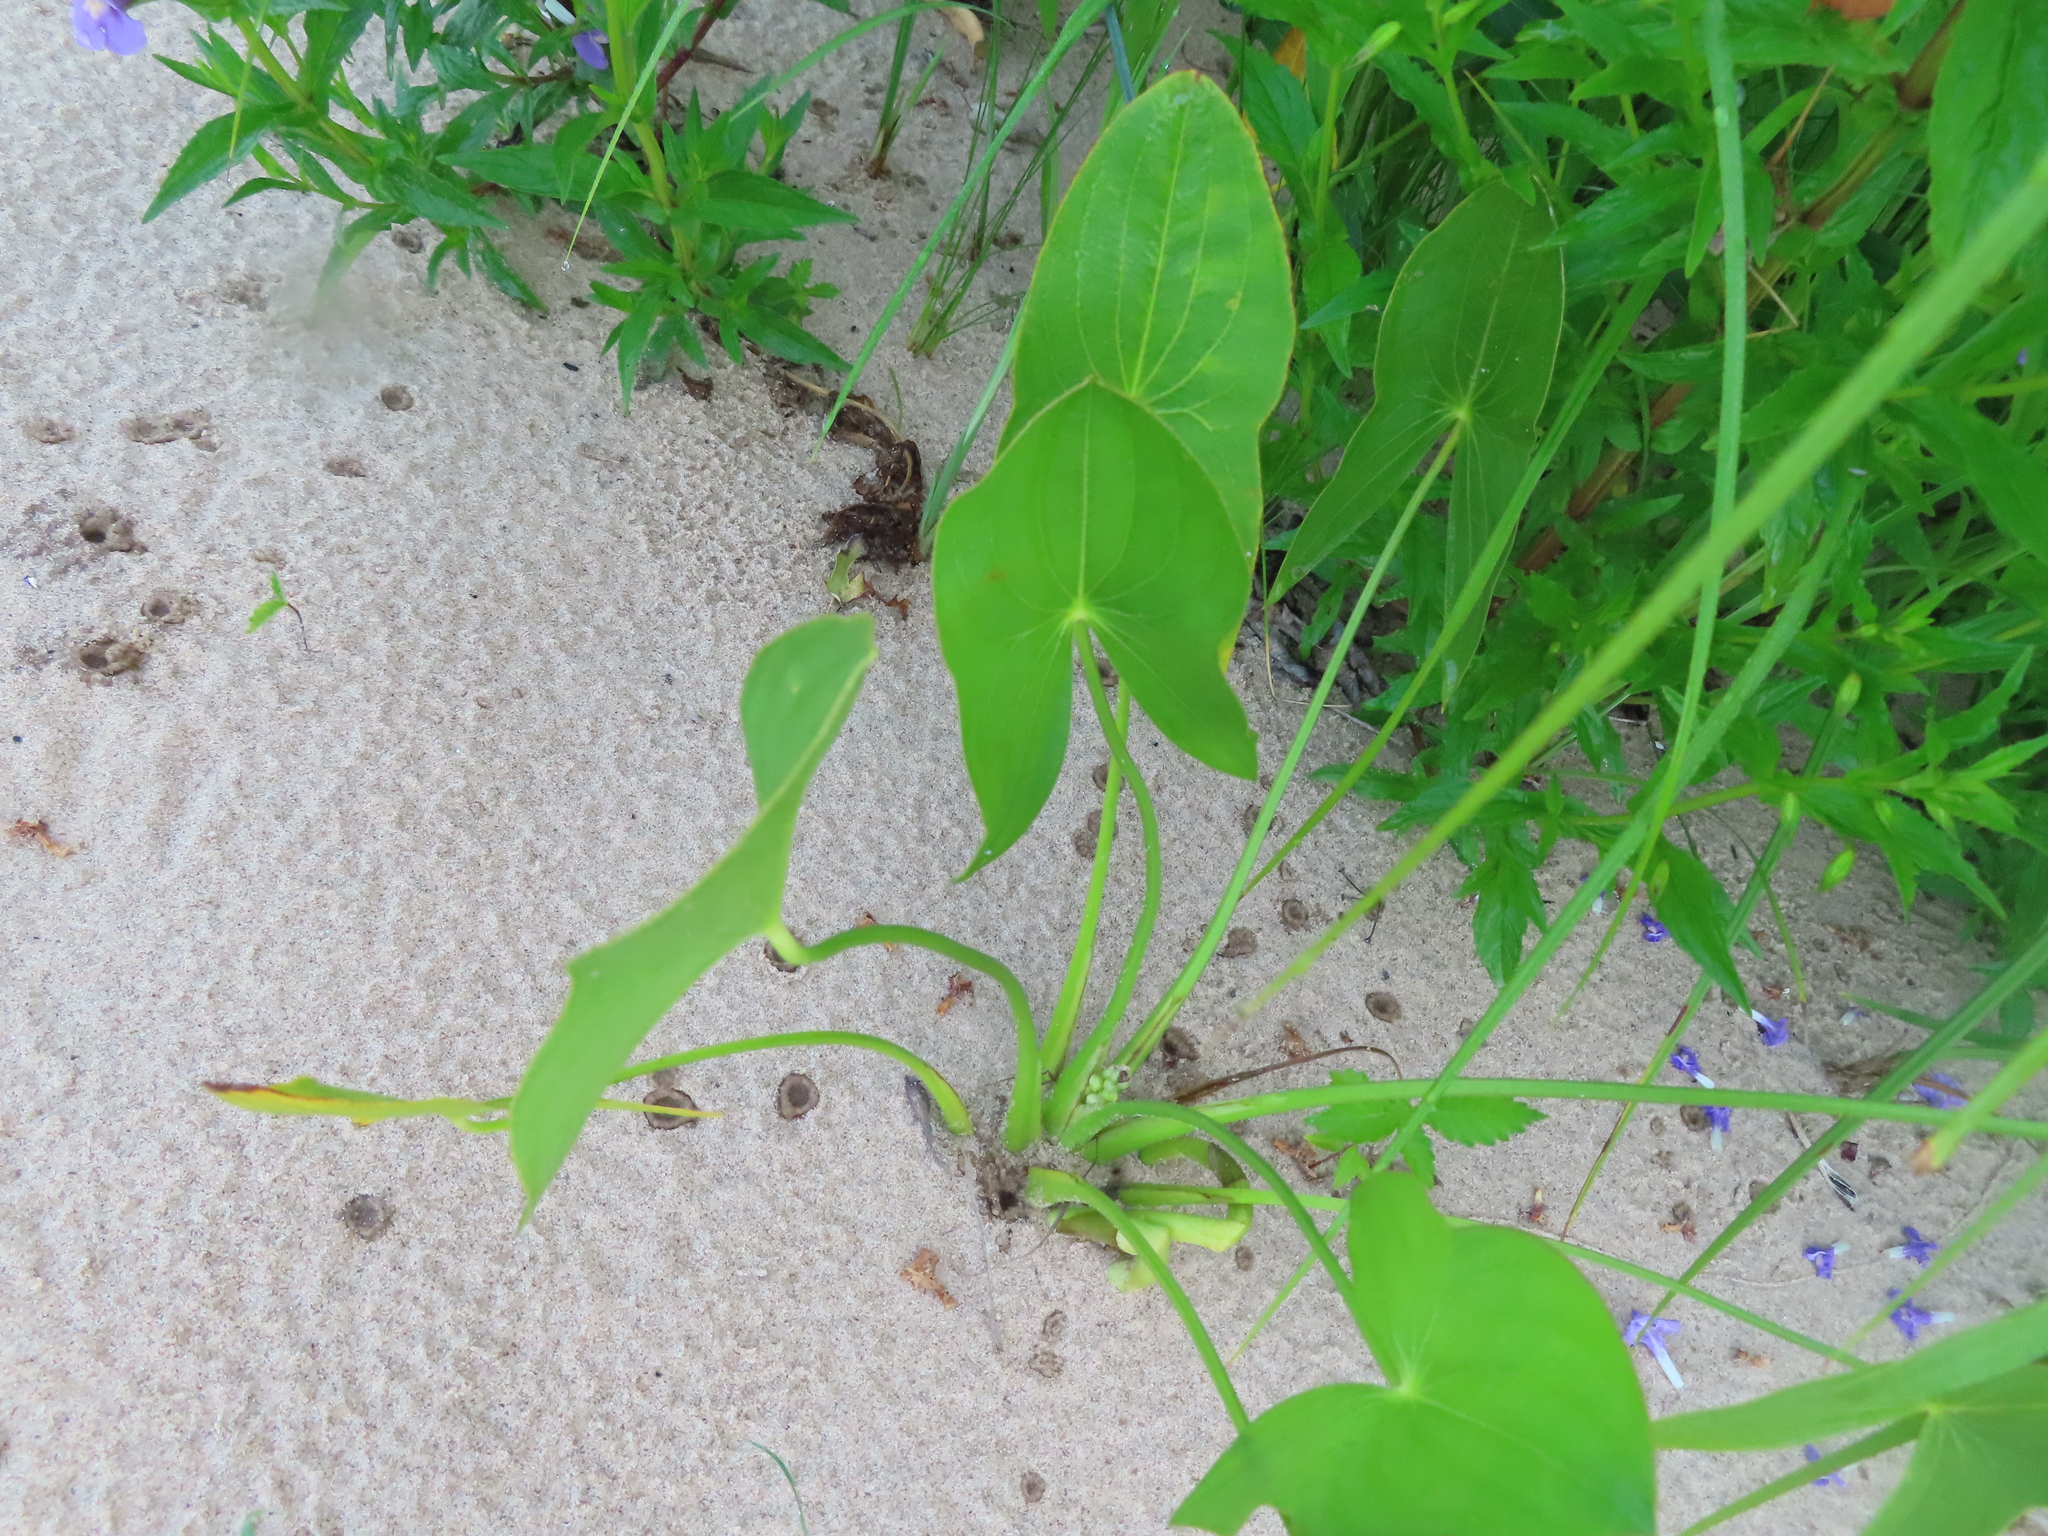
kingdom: Plantae
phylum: Tracheophyta
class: Liliopsida
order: Alismatales
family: Alismataceae
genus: Sagittaria
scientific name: Sagittaria latifolia
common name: Duck-potato
